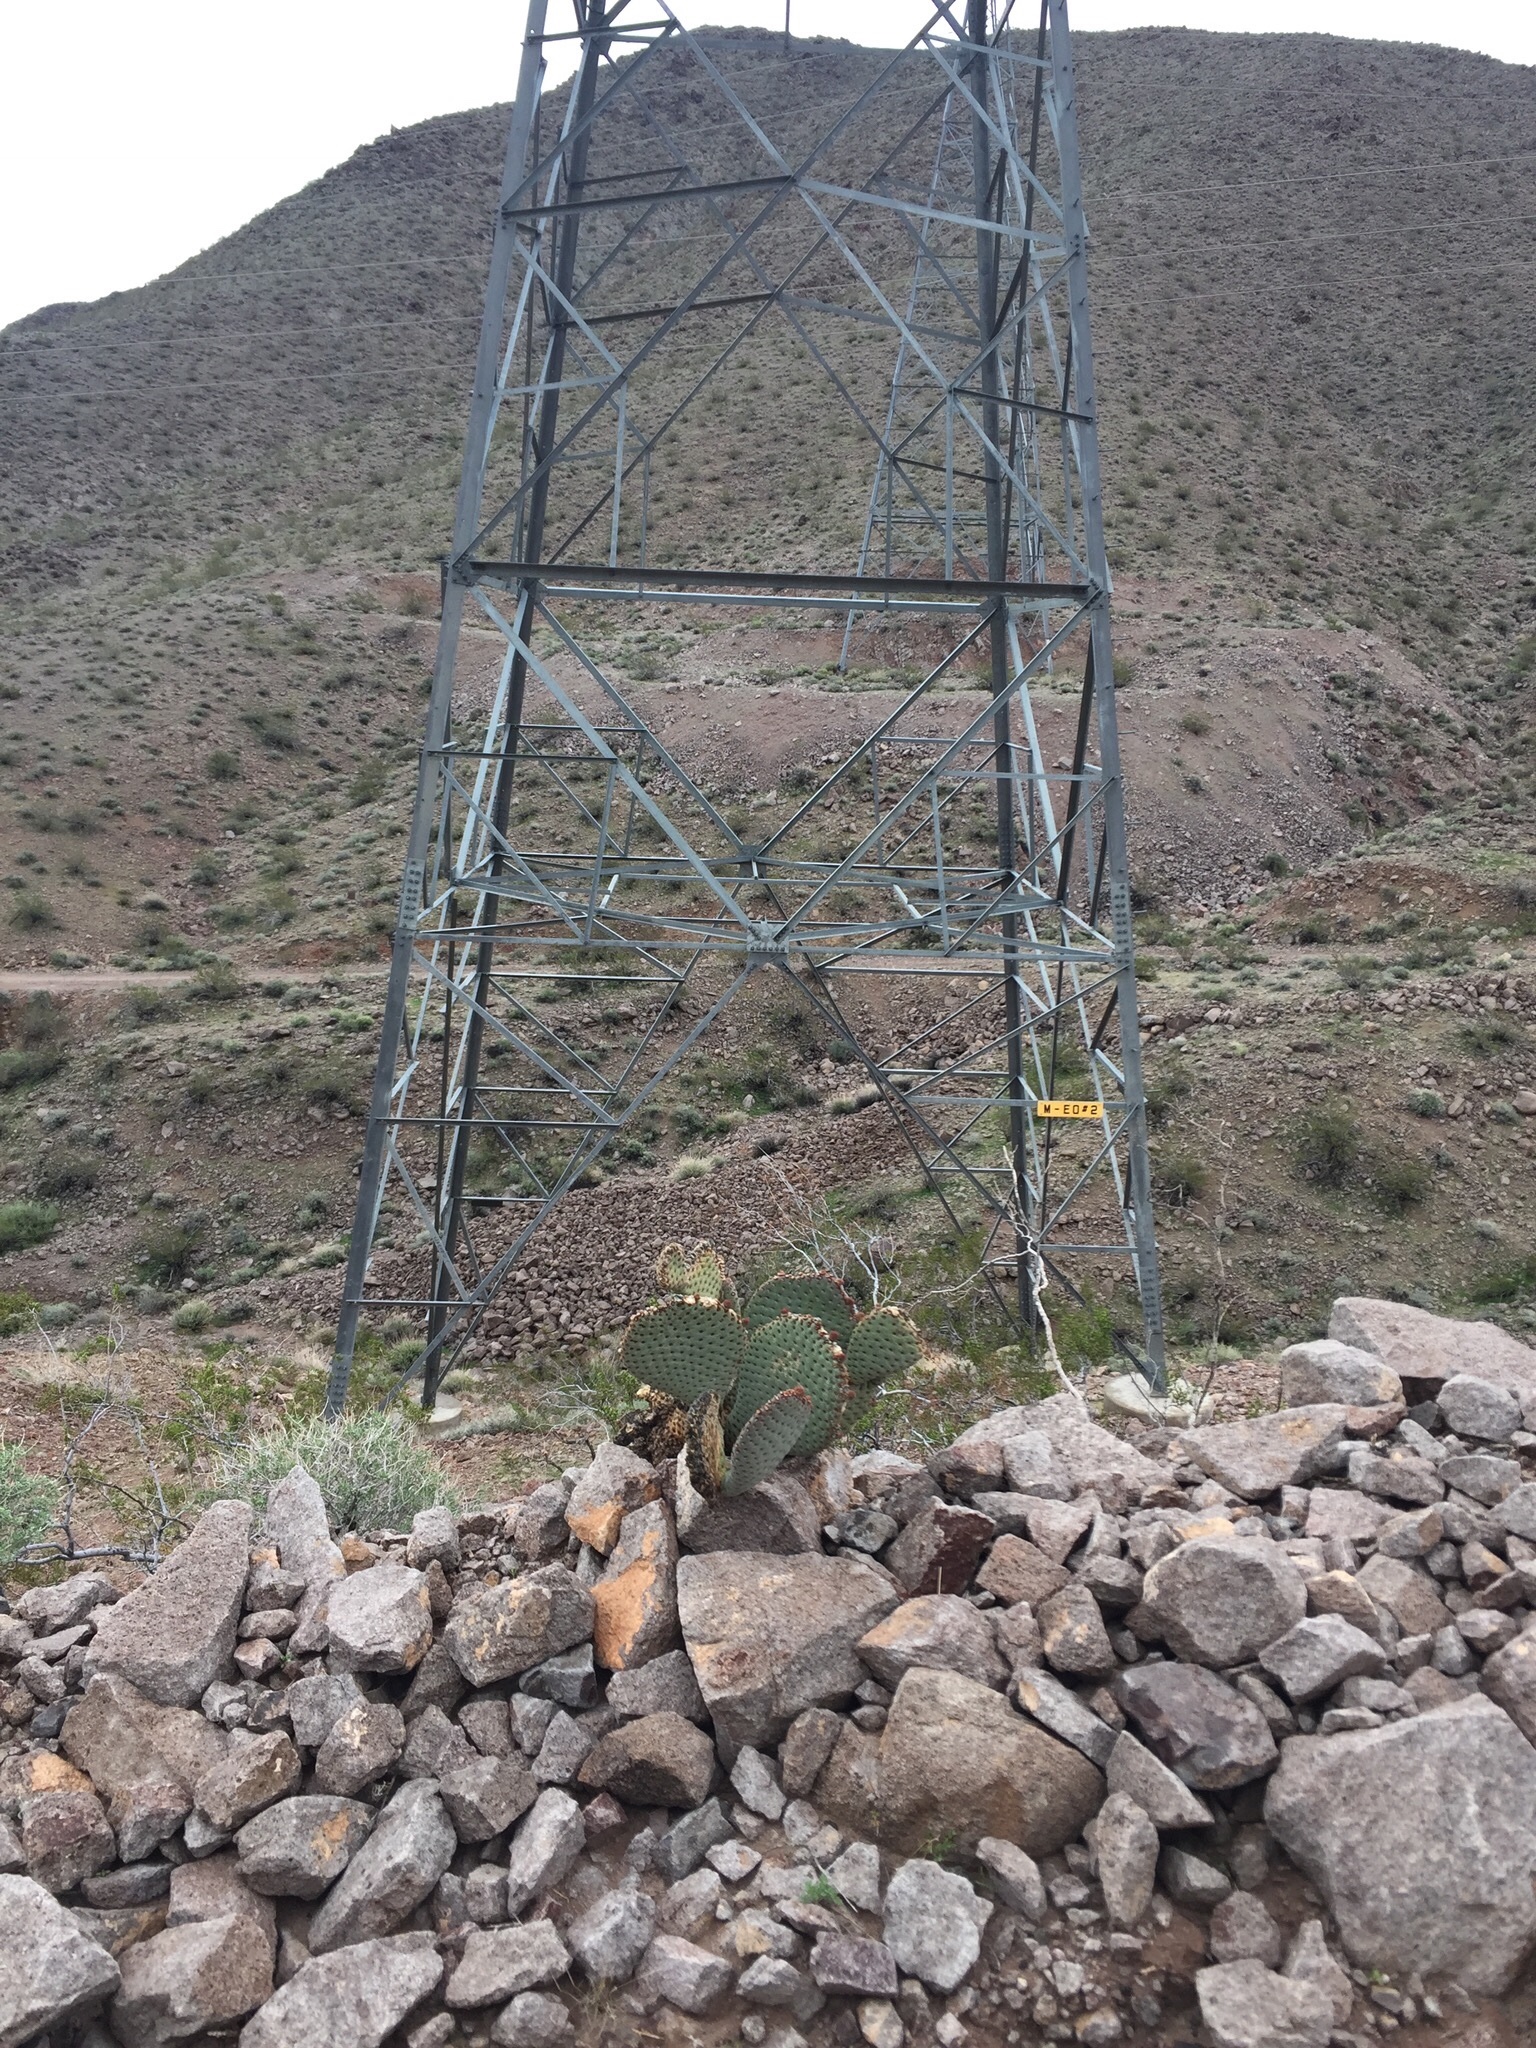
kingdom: Plantae
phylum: Tracheophyta
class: Magnoliopsida
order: Caryophyllales
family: Cactaceae
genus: Opuntia
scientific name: Opuntia basilaris
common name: Beavertail prickly-pear
